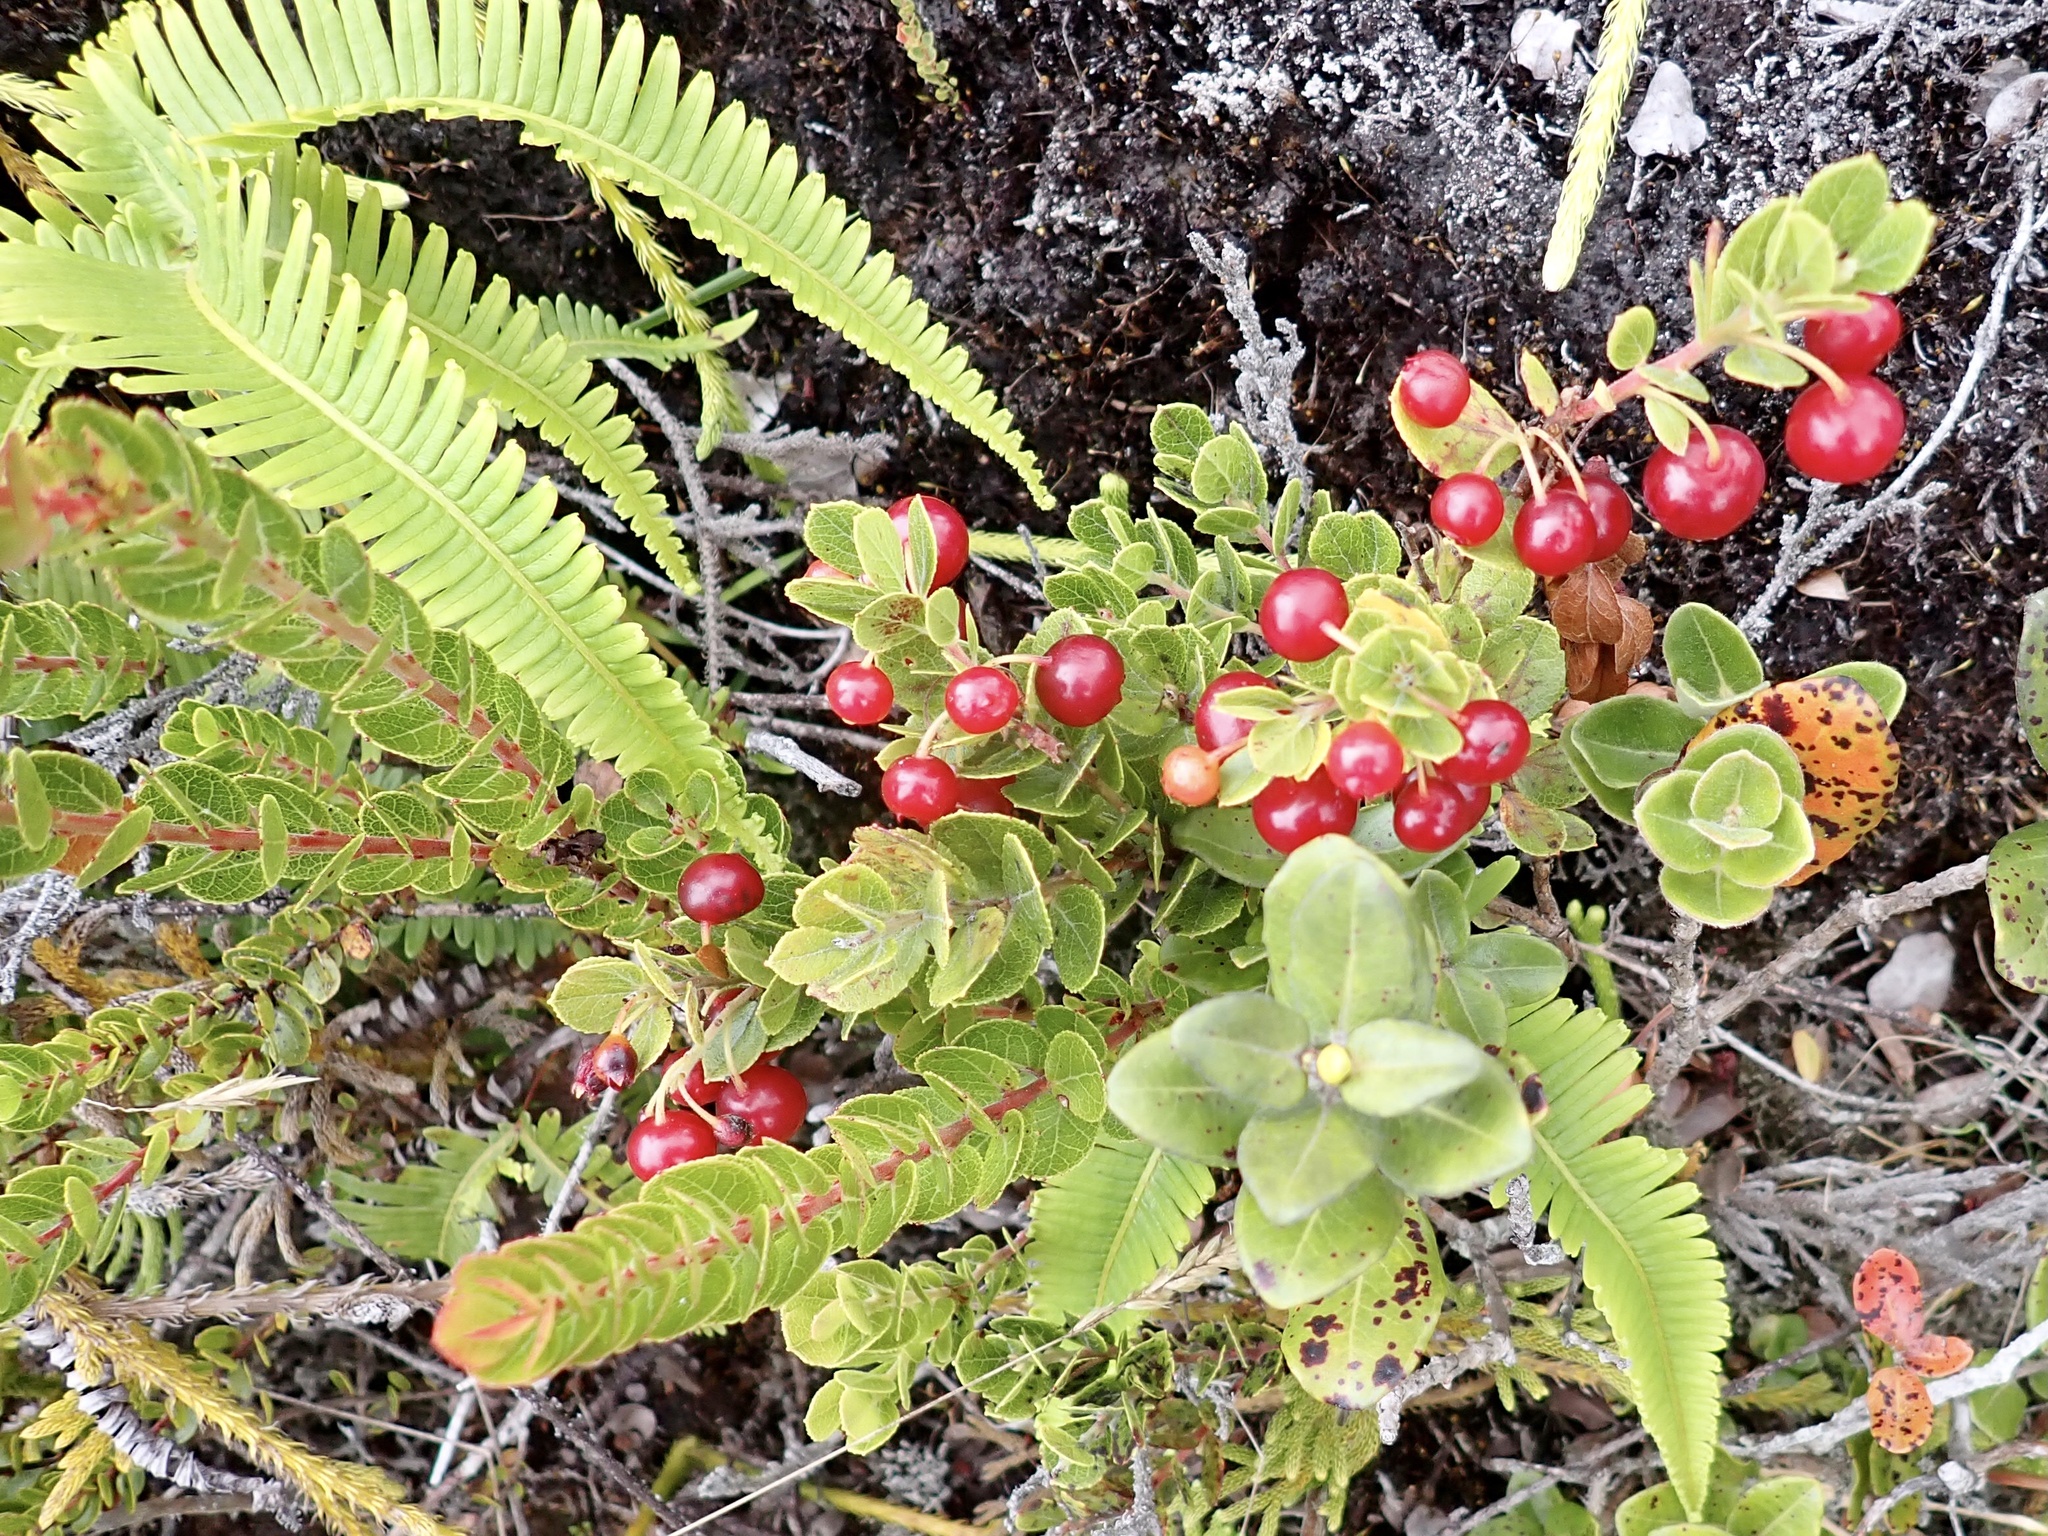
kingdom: Plantae
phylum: Tracheophyta
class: Magnoliopsida
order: Ericales
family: Ericaceae
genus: Vaccinium
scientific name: Vaccinium reticulatum
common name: Ohelo
